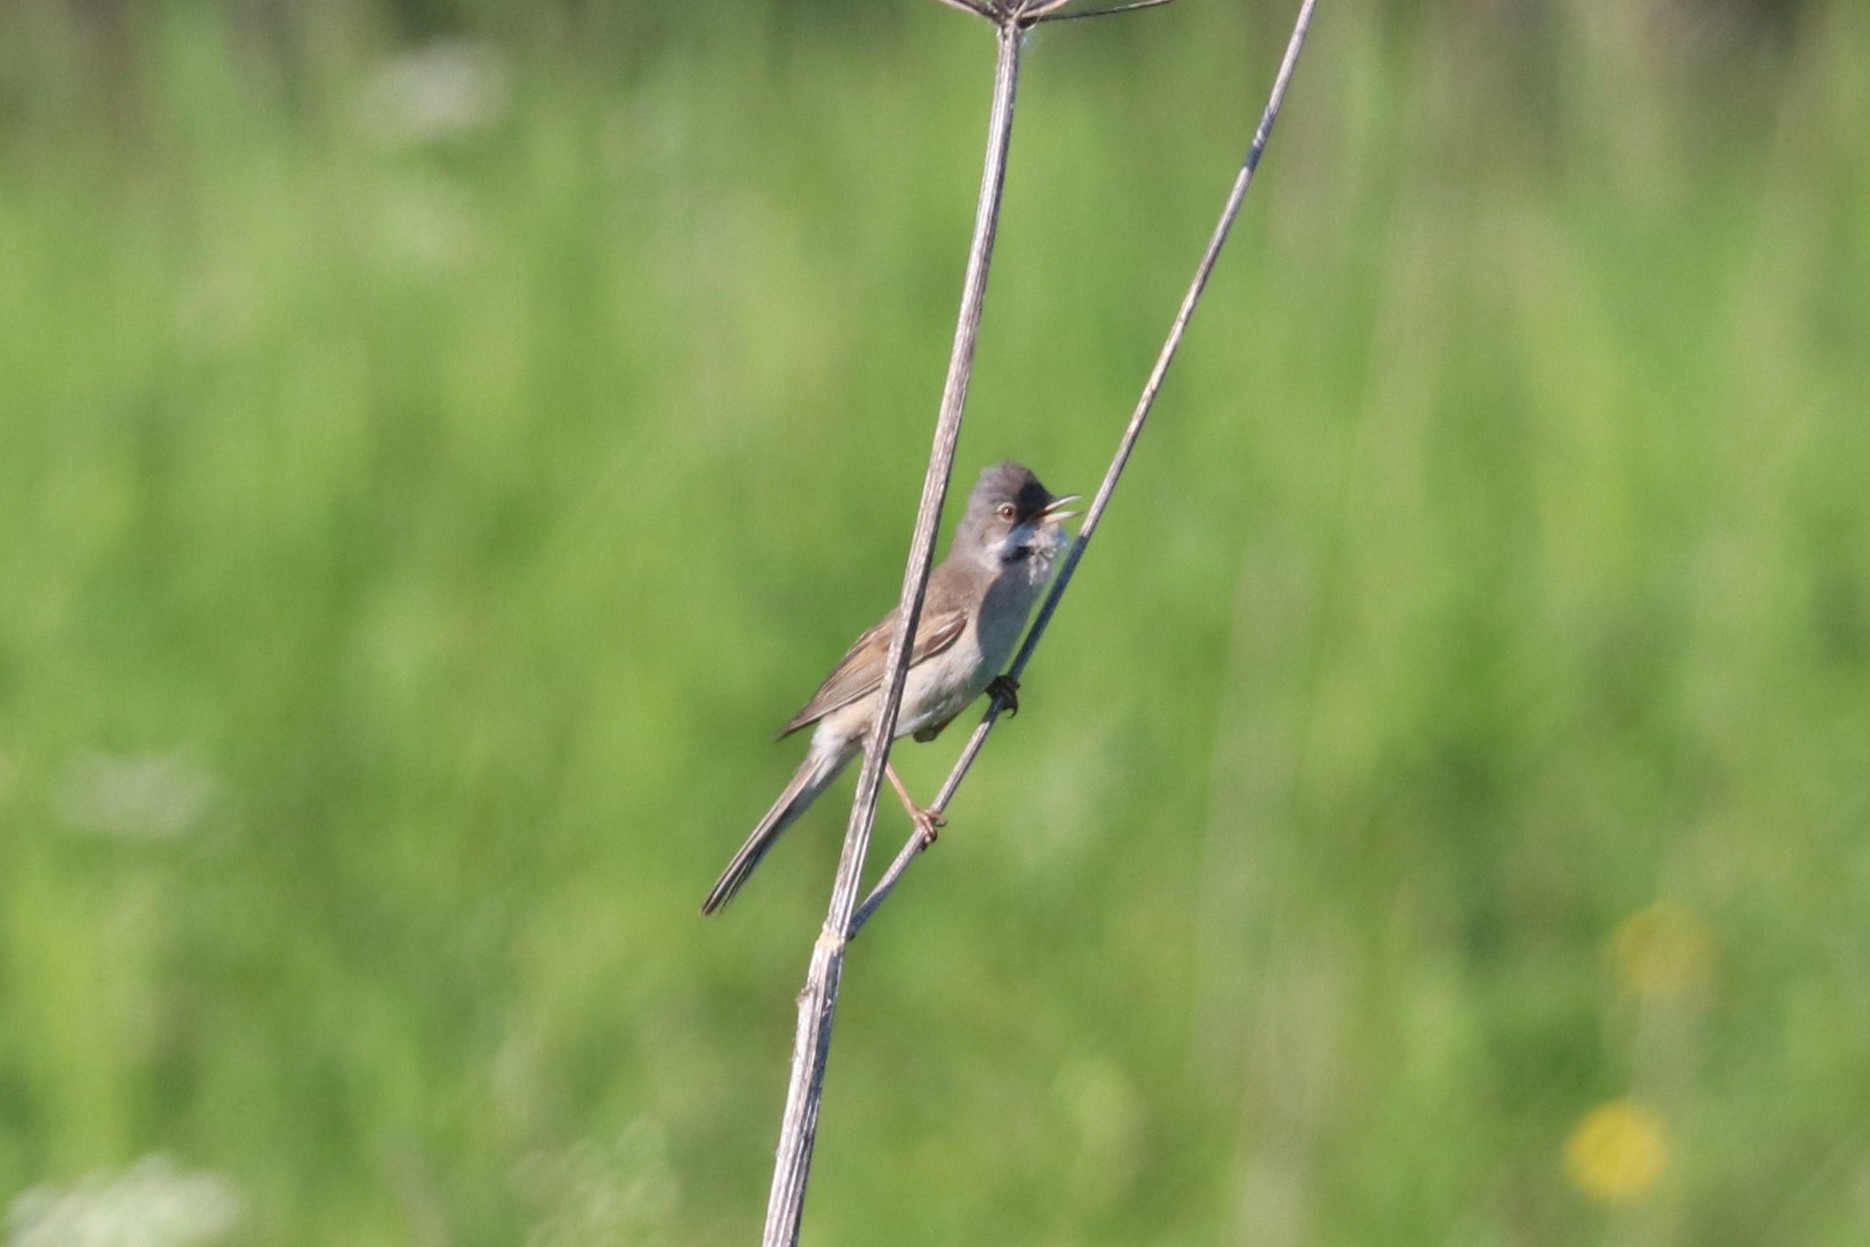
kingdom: Animalia
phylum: Chordata
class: Aves
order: Passeriformes
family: Sylviidae
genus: Sylvia
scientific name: Sylvia communis
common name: Common whitethroat
